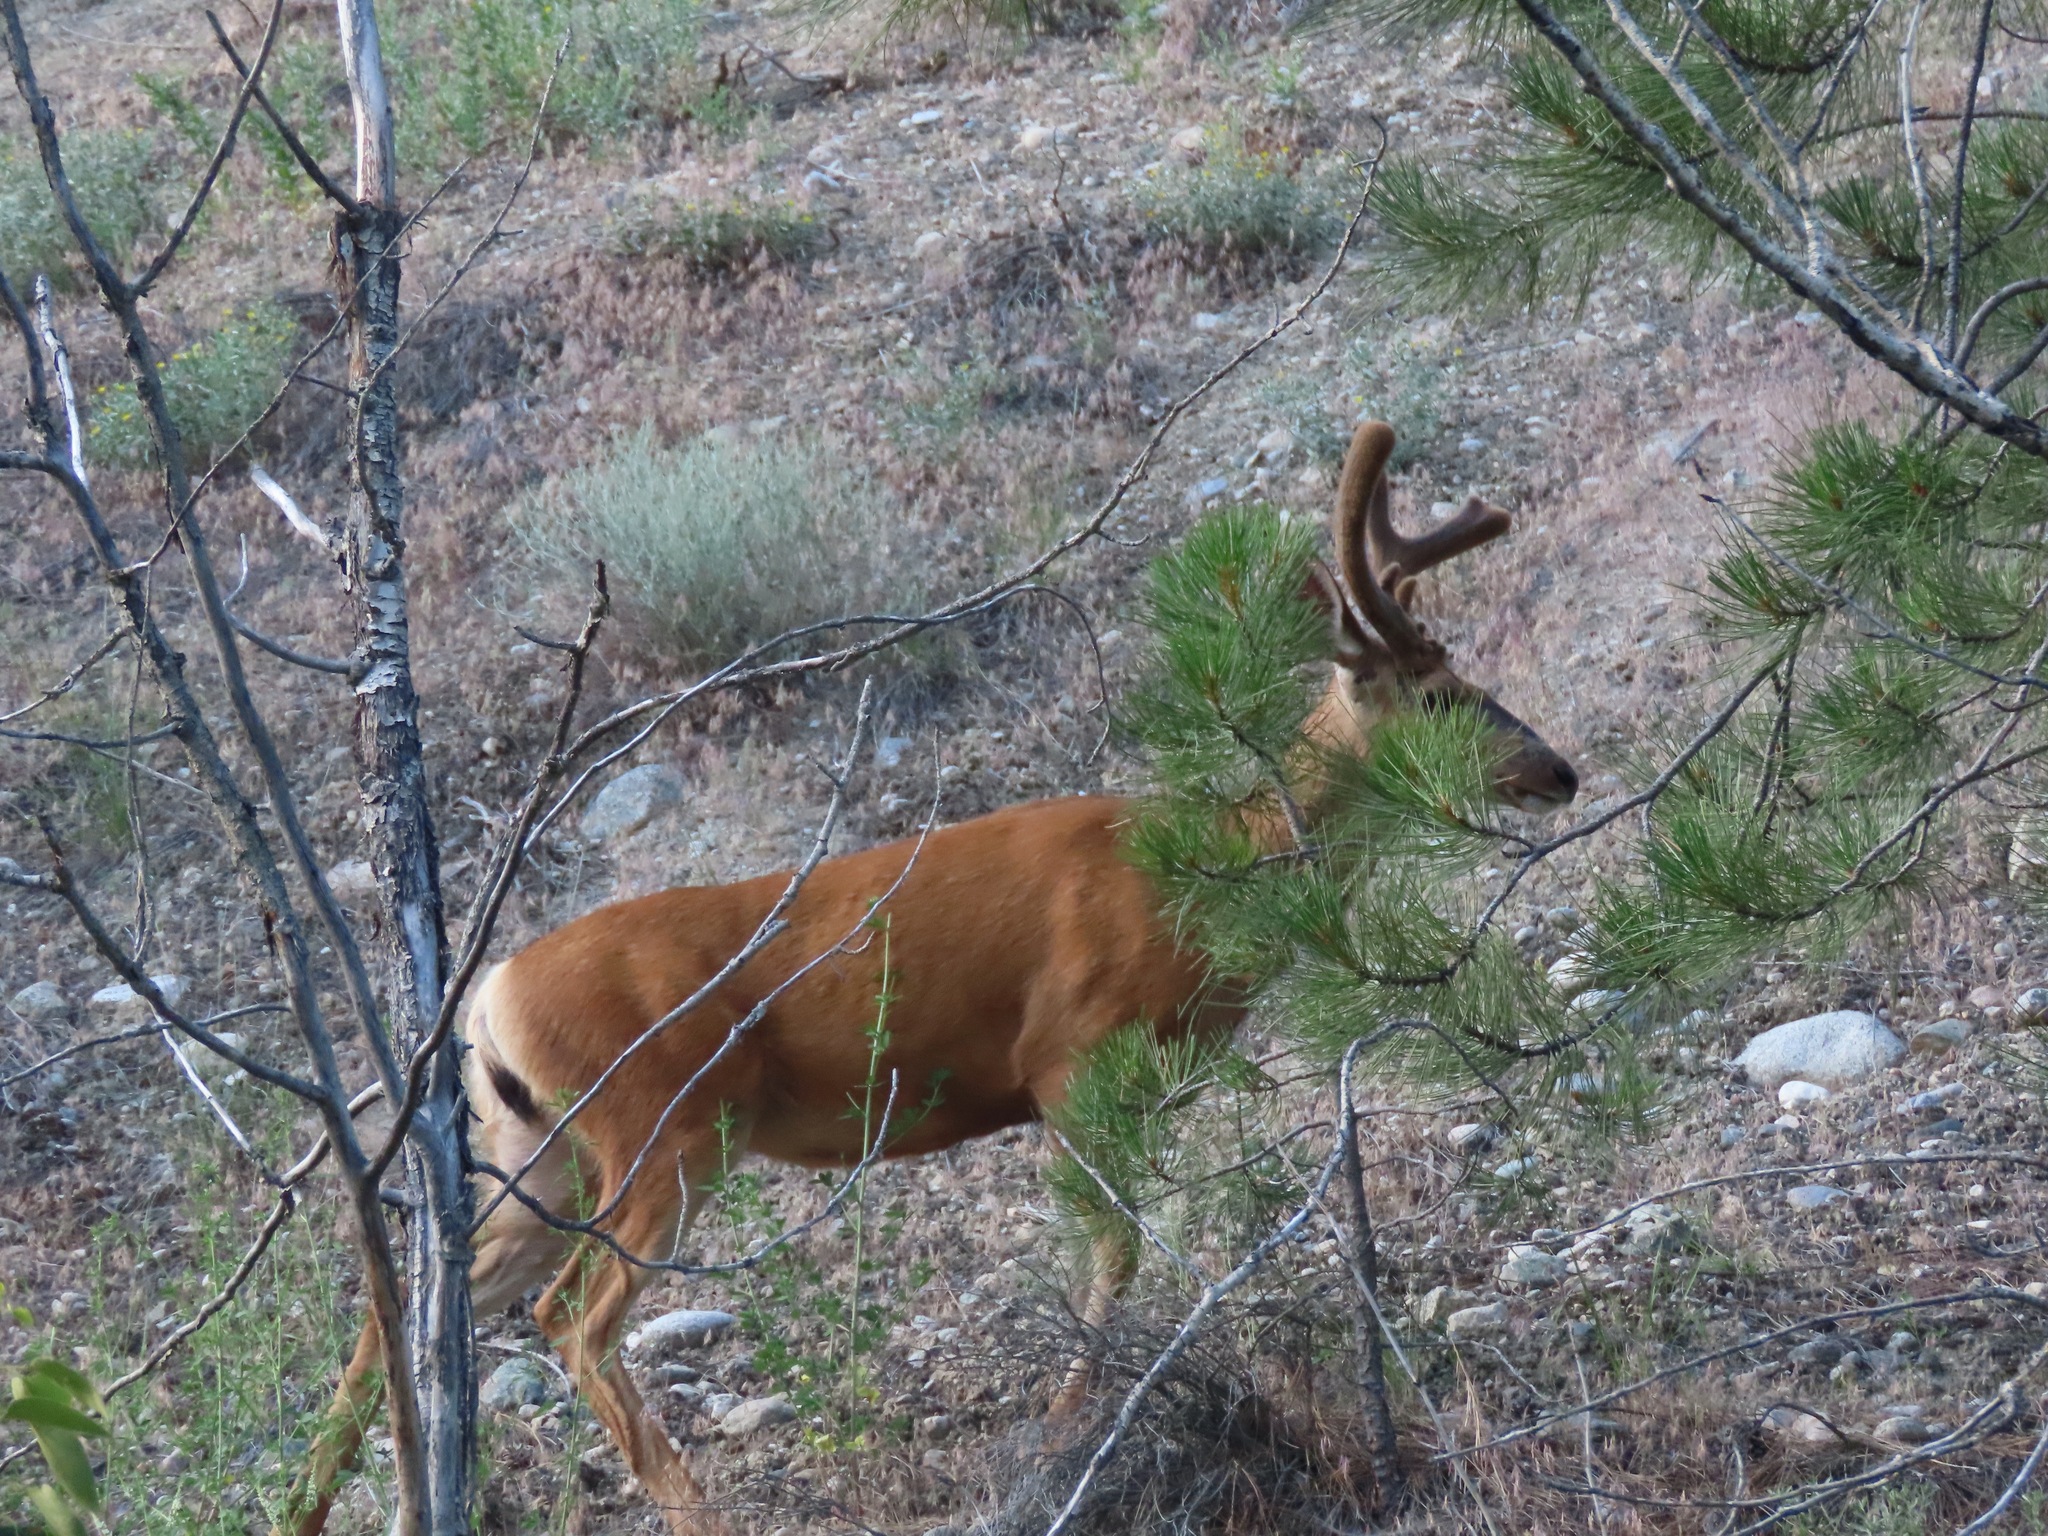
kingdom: Animalia
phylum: Chordata
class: Mammalia
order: Artiodactyla
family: Cervidae
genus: Odocoileus
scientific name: Odocoileus hemionus
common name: Mule deer
